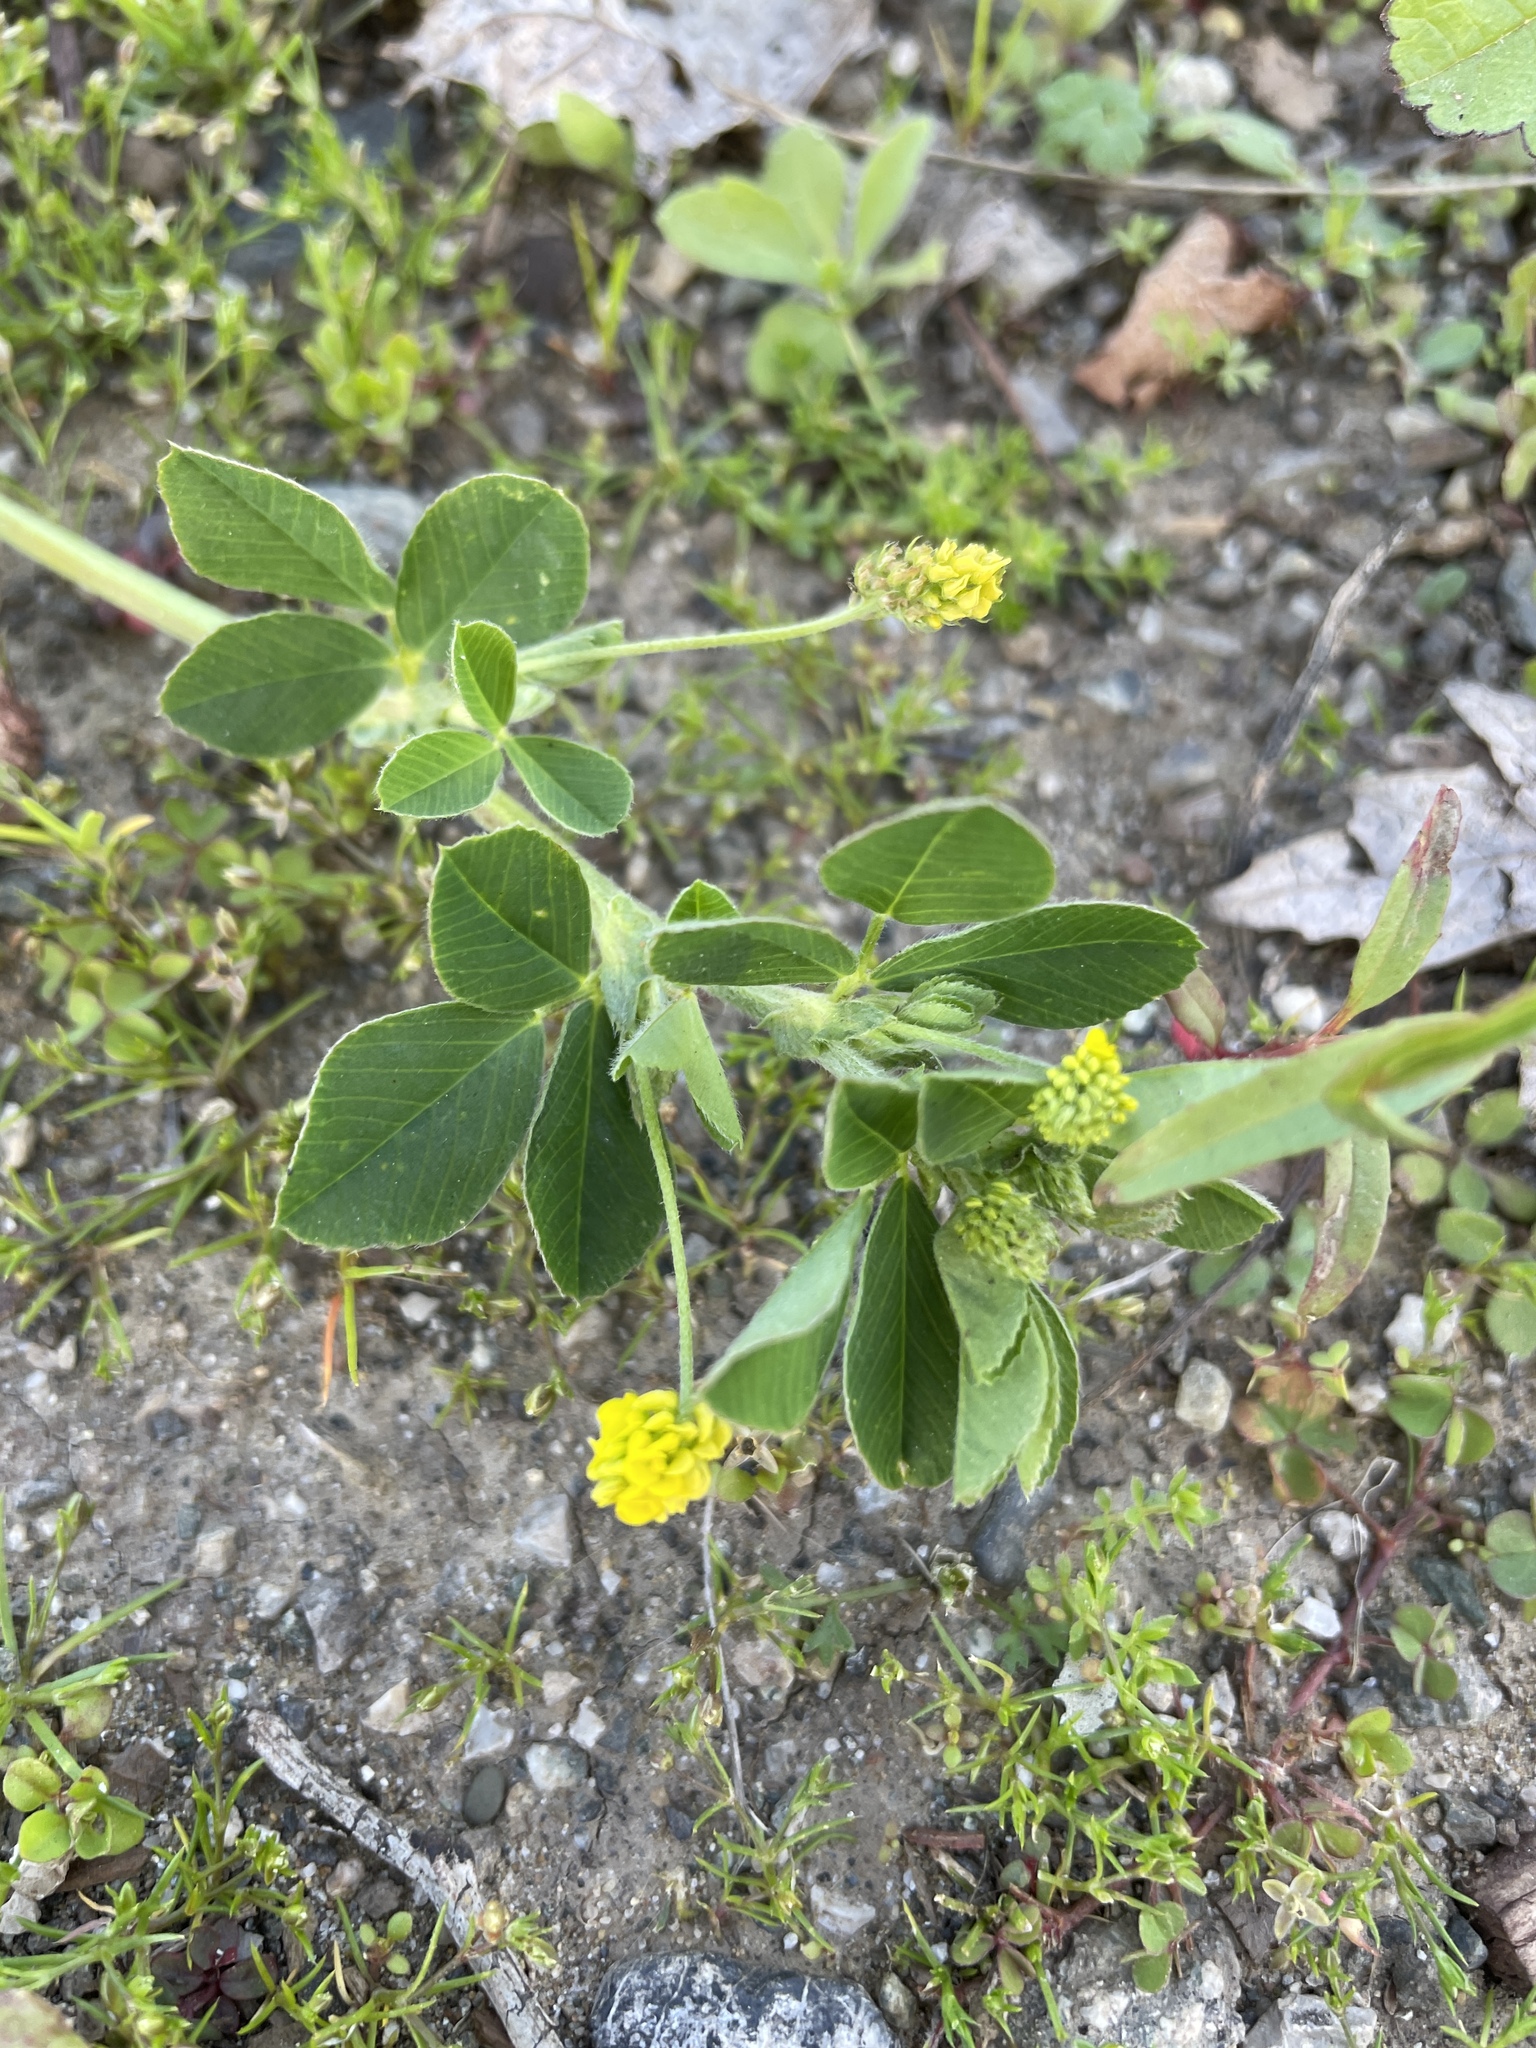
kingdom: Plantae
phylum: Tracheophyta
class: Magnoliopsida
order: Fabales
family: Fabaceae
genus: Medicago
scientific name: Medicago lupulina
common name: Black medick
